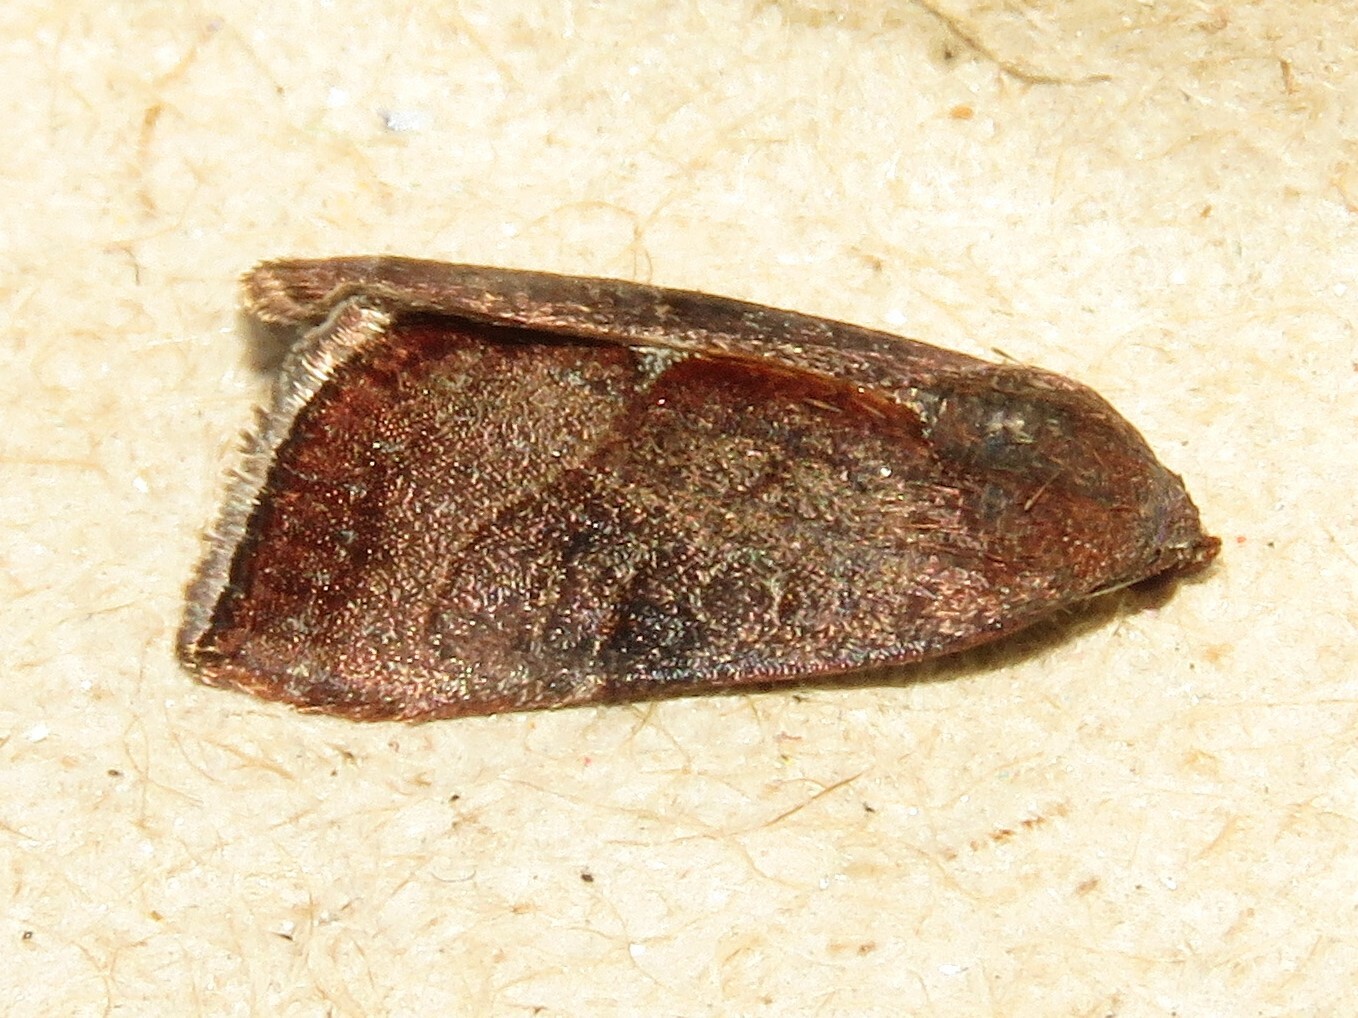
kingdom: Animalia
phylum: Arthropoda
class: Insecta
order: Lepidoptera
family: Noctuidae
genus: Galgula
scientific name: Galgula partita
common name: Wedgeling
